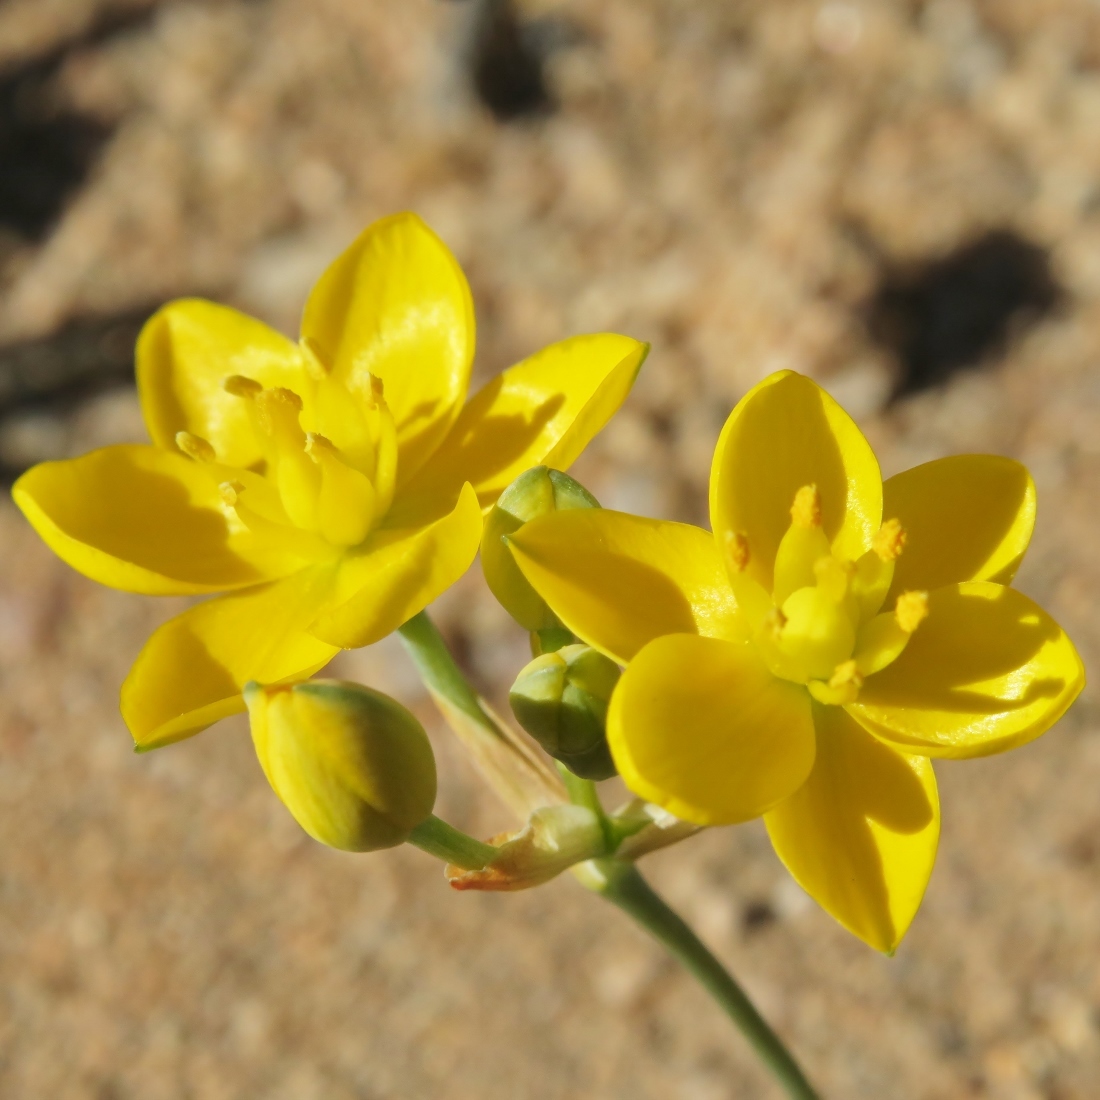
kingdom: Plantae
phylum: Tracheophyta
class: Liliopsida
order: Asparagales
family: Asparagaceae
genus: Ornithogalum
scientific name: Ornithogalum rupestre
